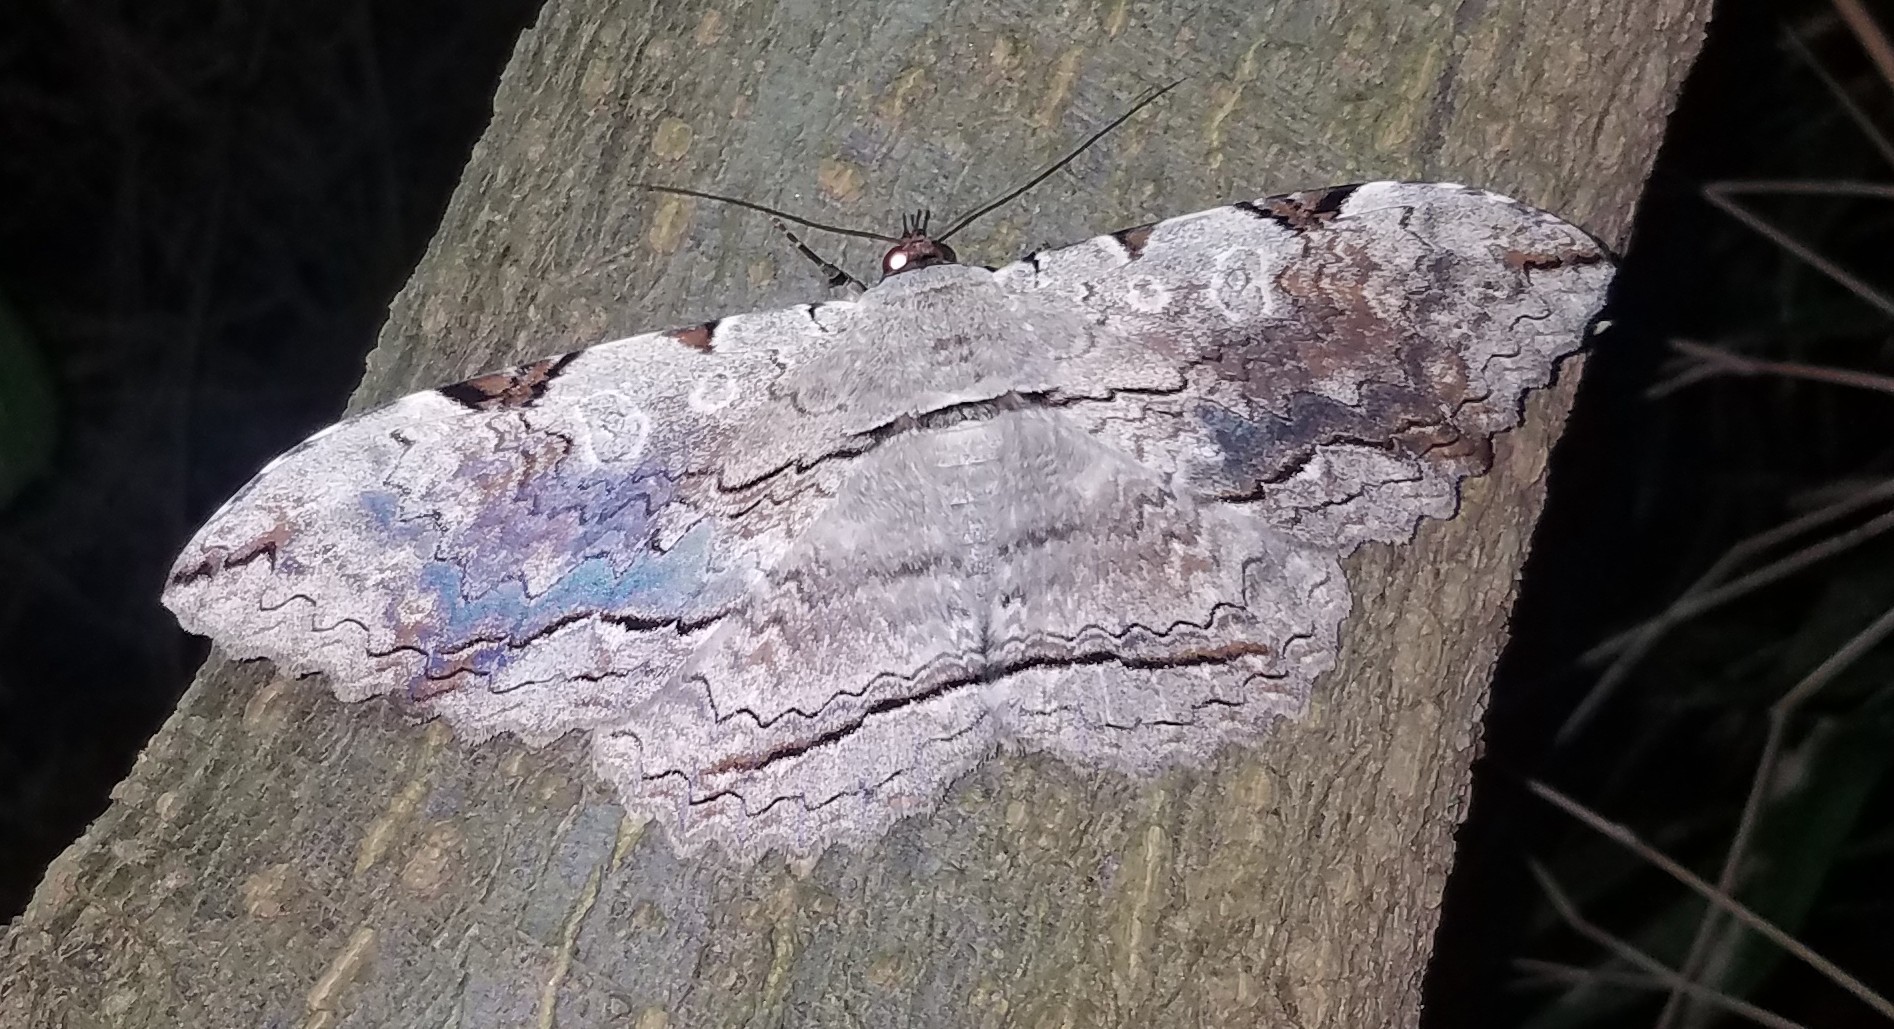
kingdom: Animalia
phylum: Arthropoda
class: Insecta
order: Lepidoptera
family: Erebidae
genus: Thysania
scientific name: Thysania zenobia
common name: Owl moth
